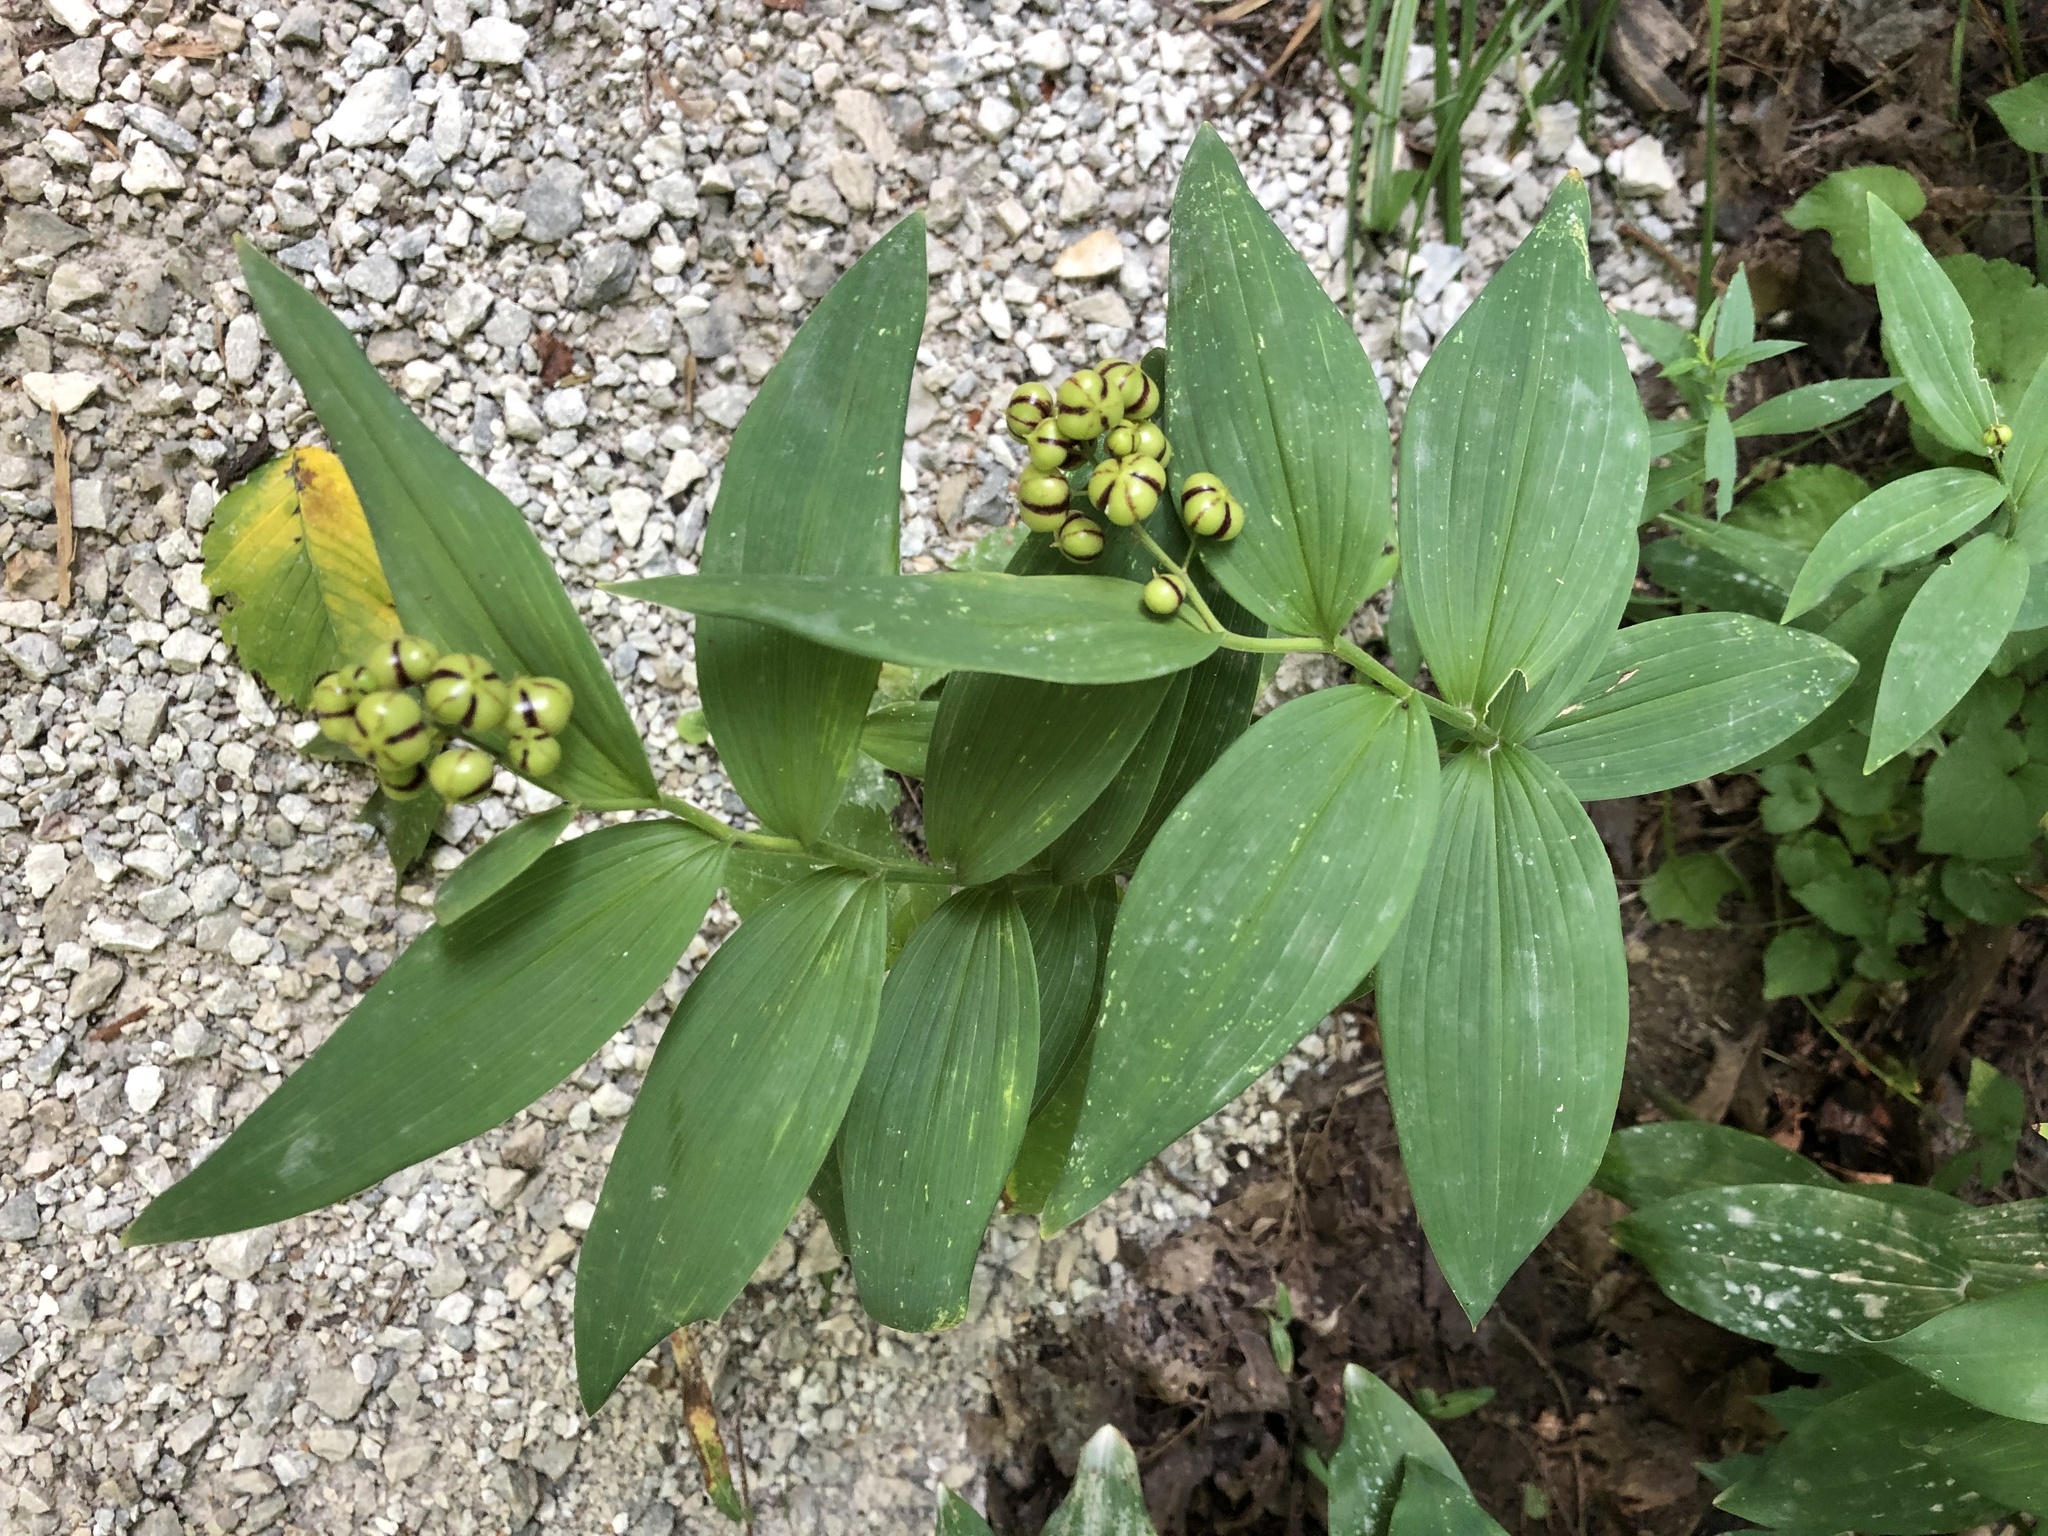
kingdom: Plantae
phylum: Tracheophyta
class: Liliopsida
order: Asparagales
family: Asparagaceae
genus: Maianthemum
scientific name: Maianthemum stellatum
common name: Little false solomon's seal
